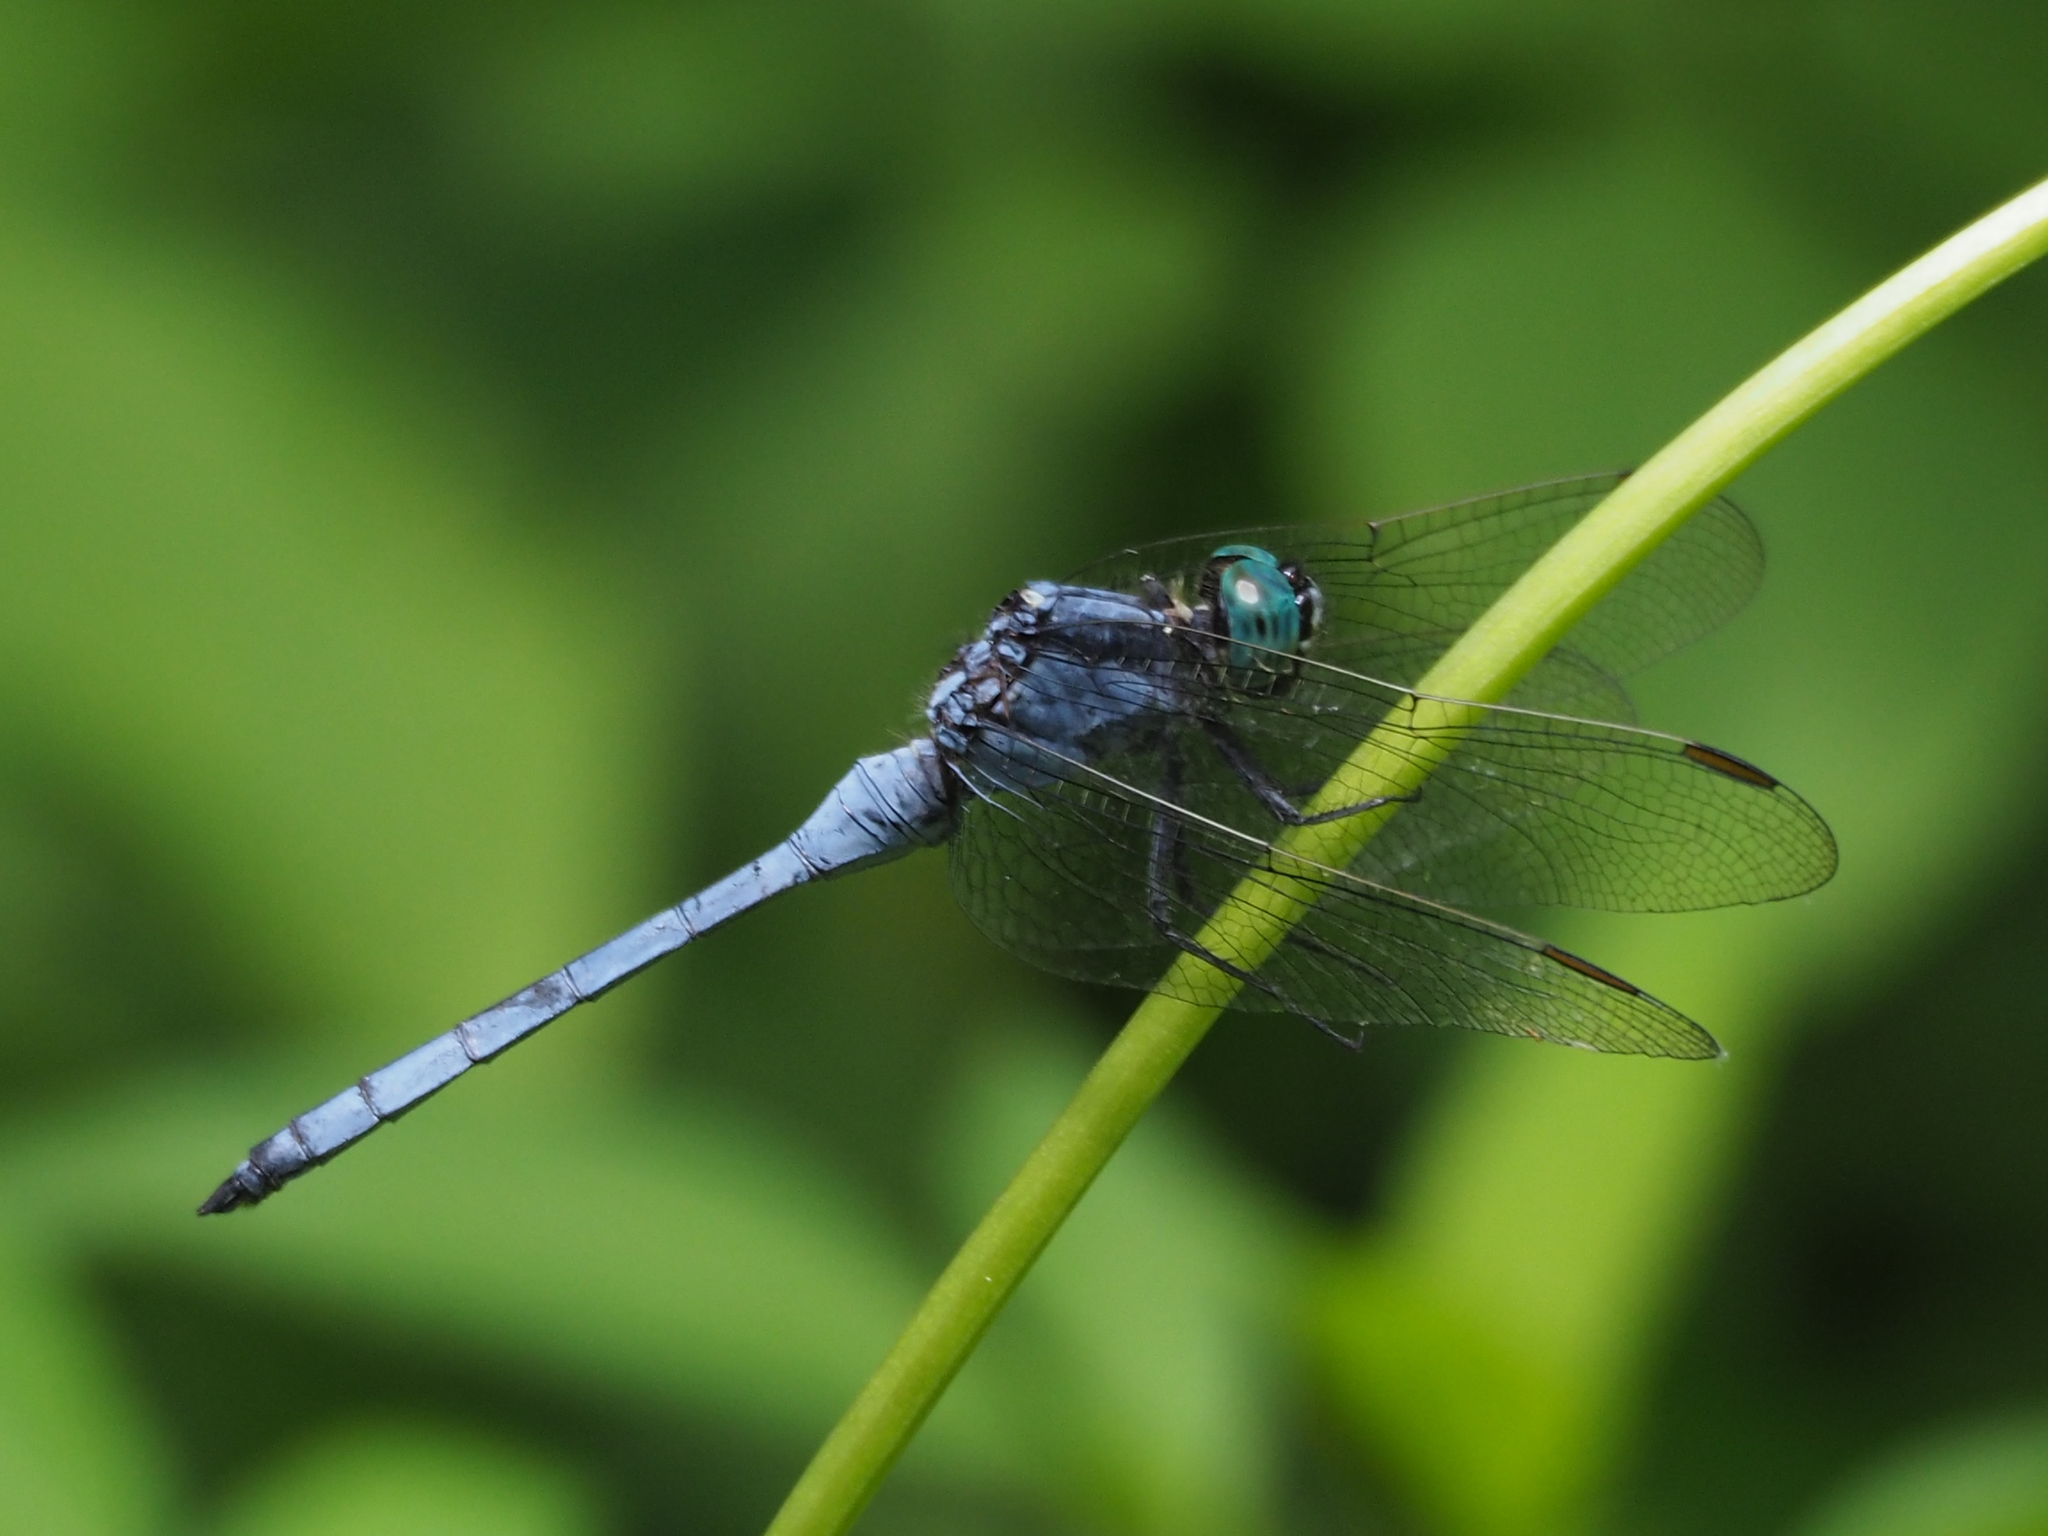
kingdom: Animalia
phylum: Arthropoda
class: Insecta
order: Odonata
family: Libellulidae
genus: Orthetrum
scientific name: Orthetrum luzonicum
